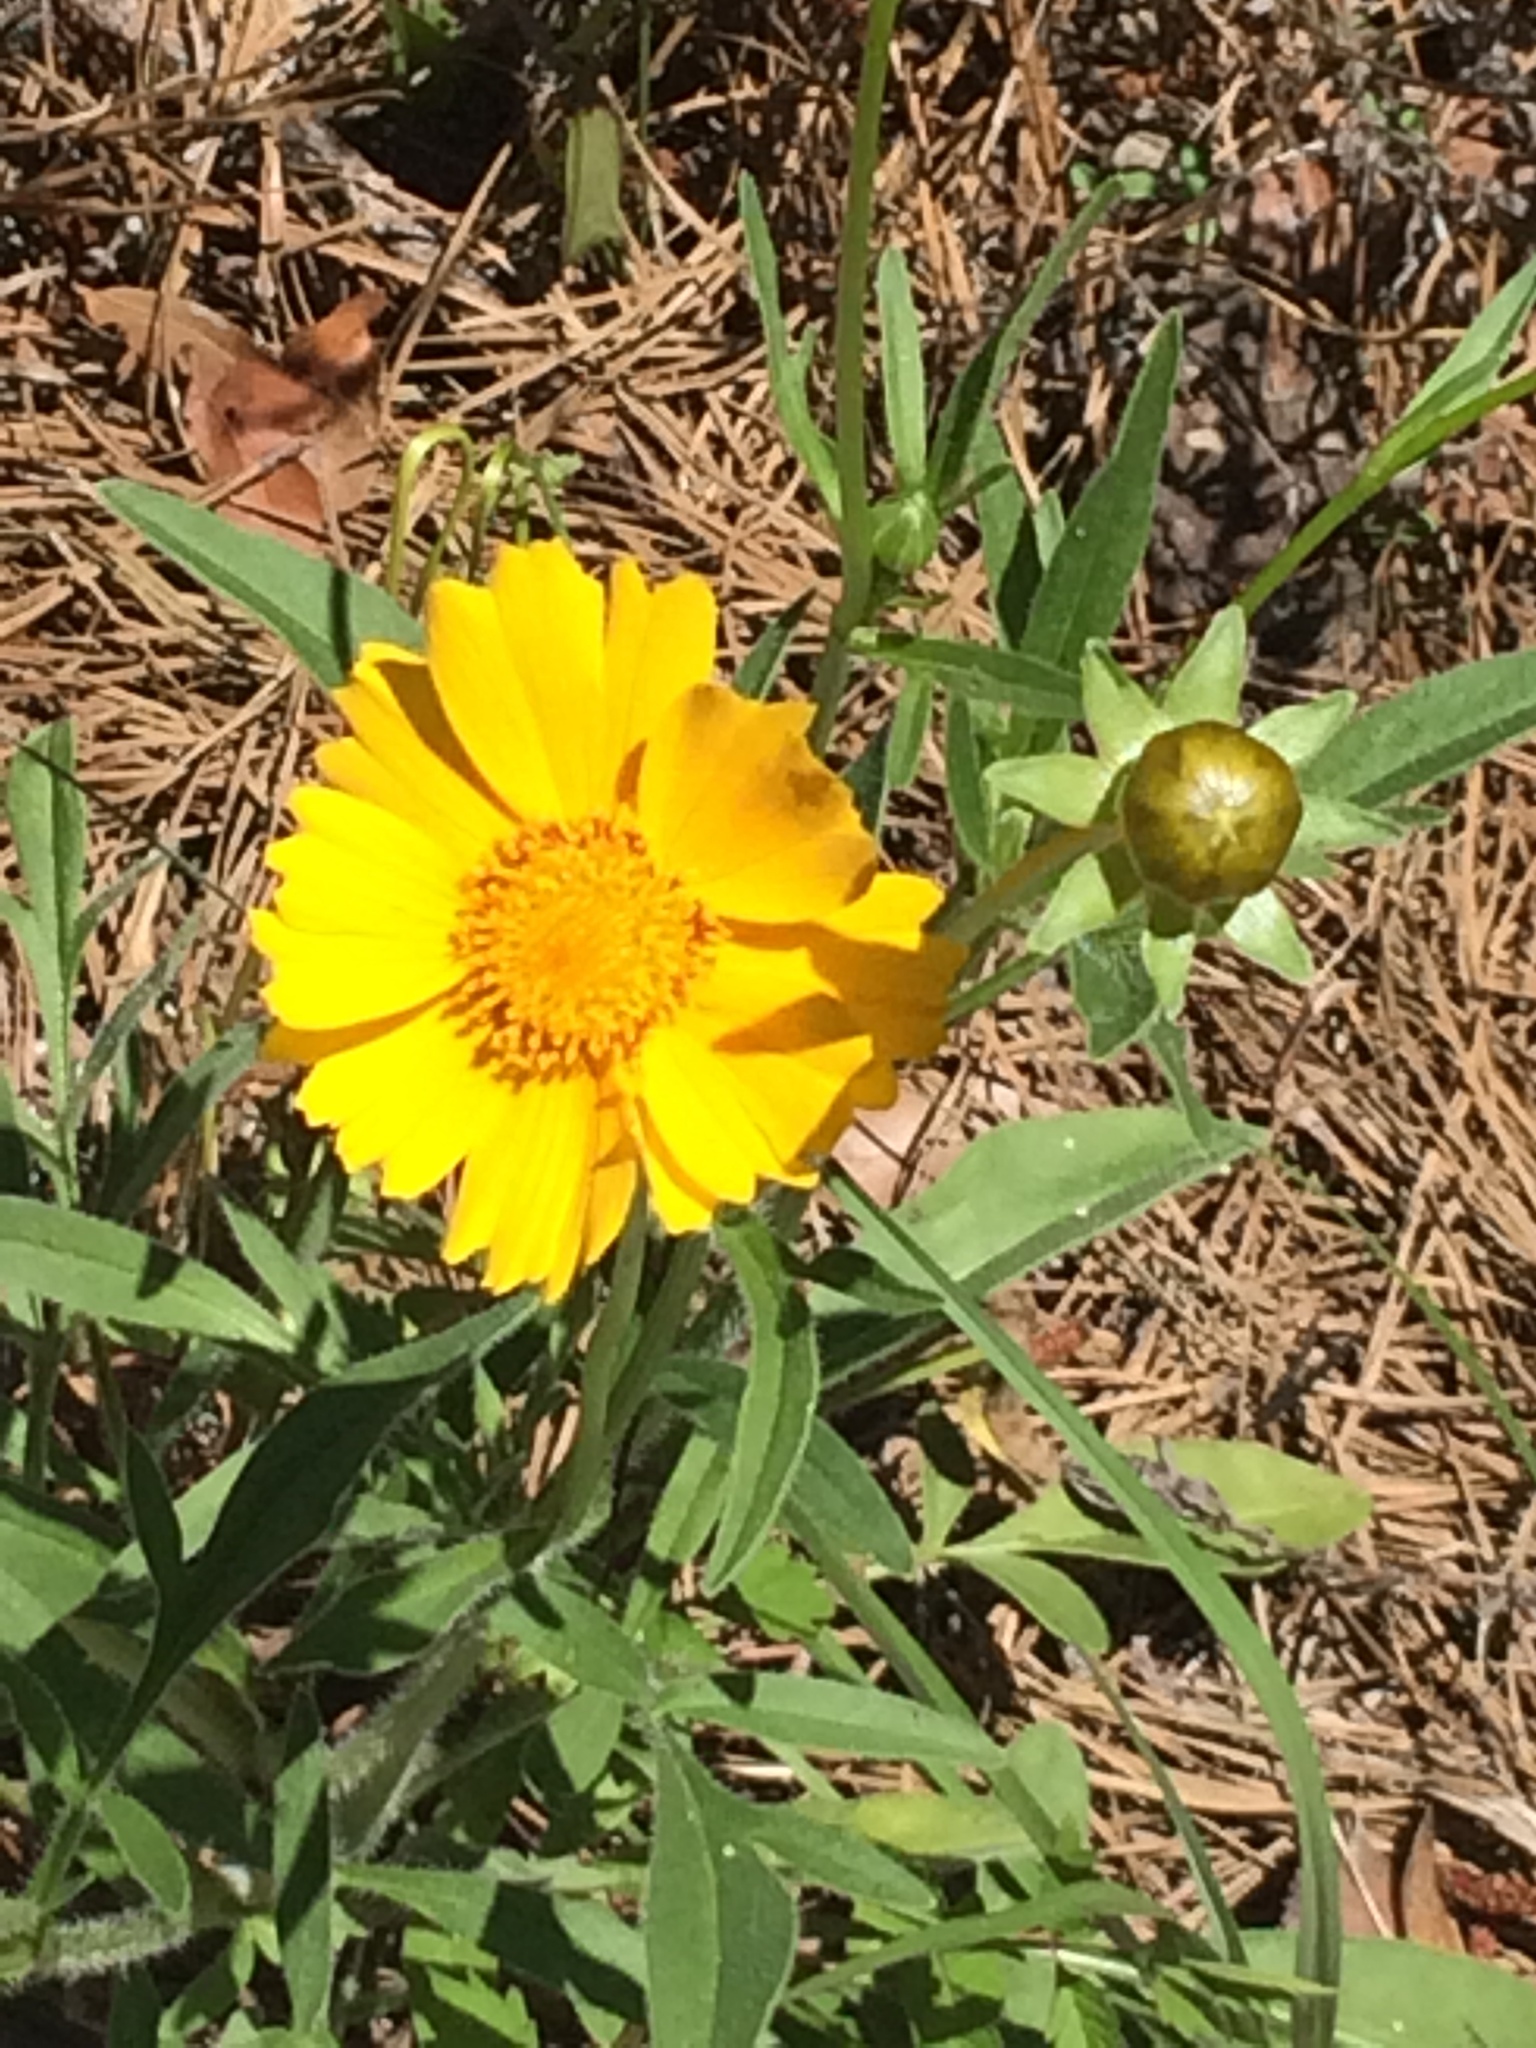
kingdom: Plantae
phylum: Tracheophyta
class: Magnoliopsida
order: Asterales
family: Asteraceae
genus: Helenium
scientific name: Helenium autumnale
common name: Sneezeweed
